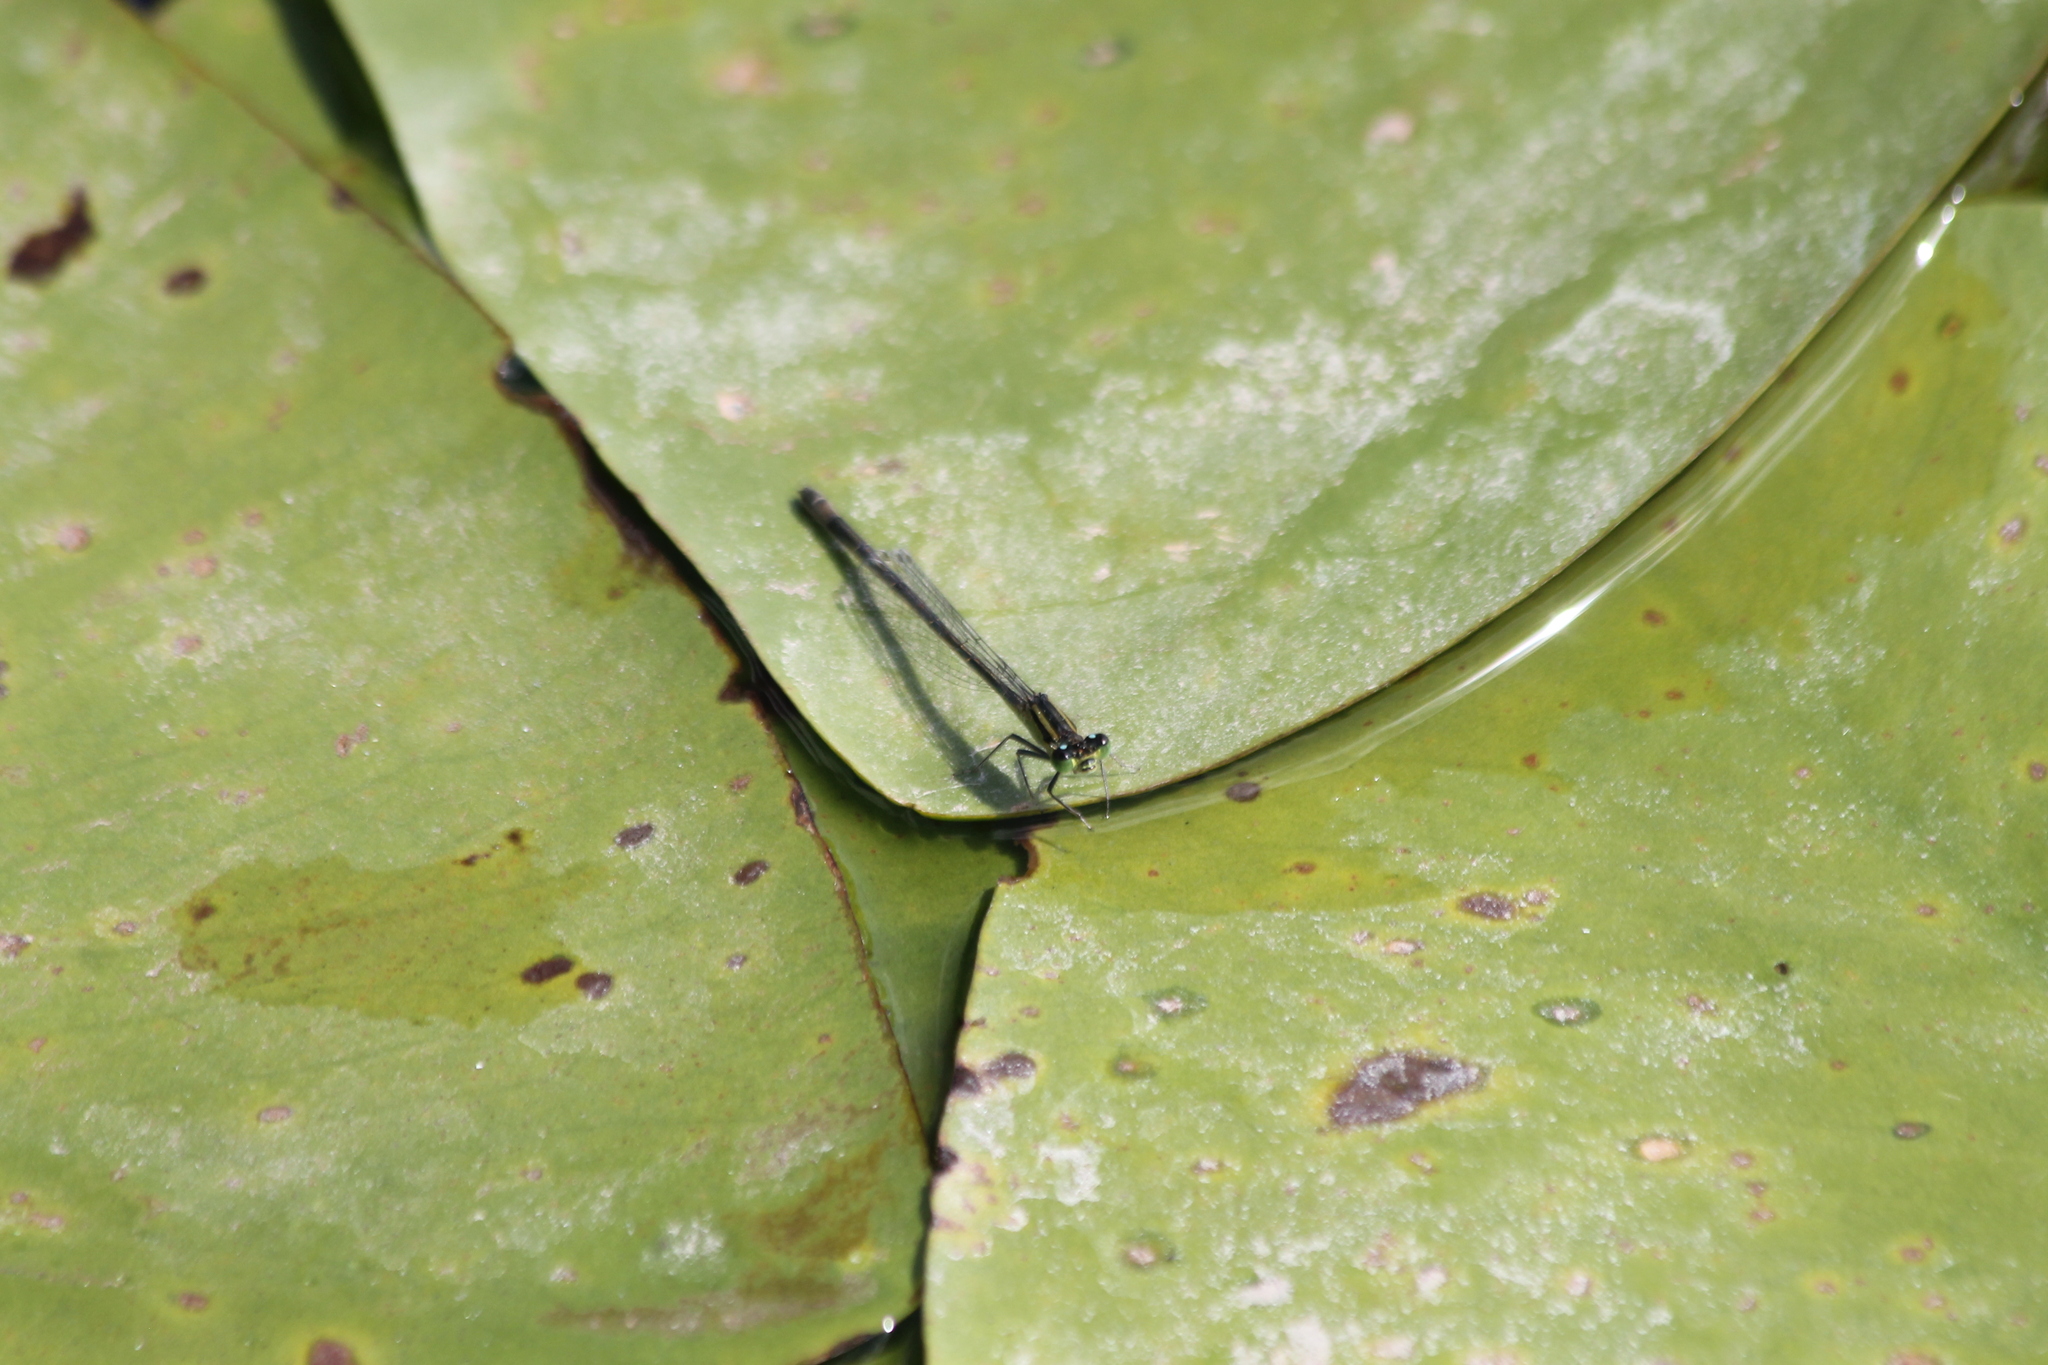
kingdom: Animalia
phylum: Arthropoda
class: Insecta
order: Odonata
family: Coenagrionidae
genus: Ischnura
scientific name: Ischnura elegans
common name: Blue-tailed damselfly
